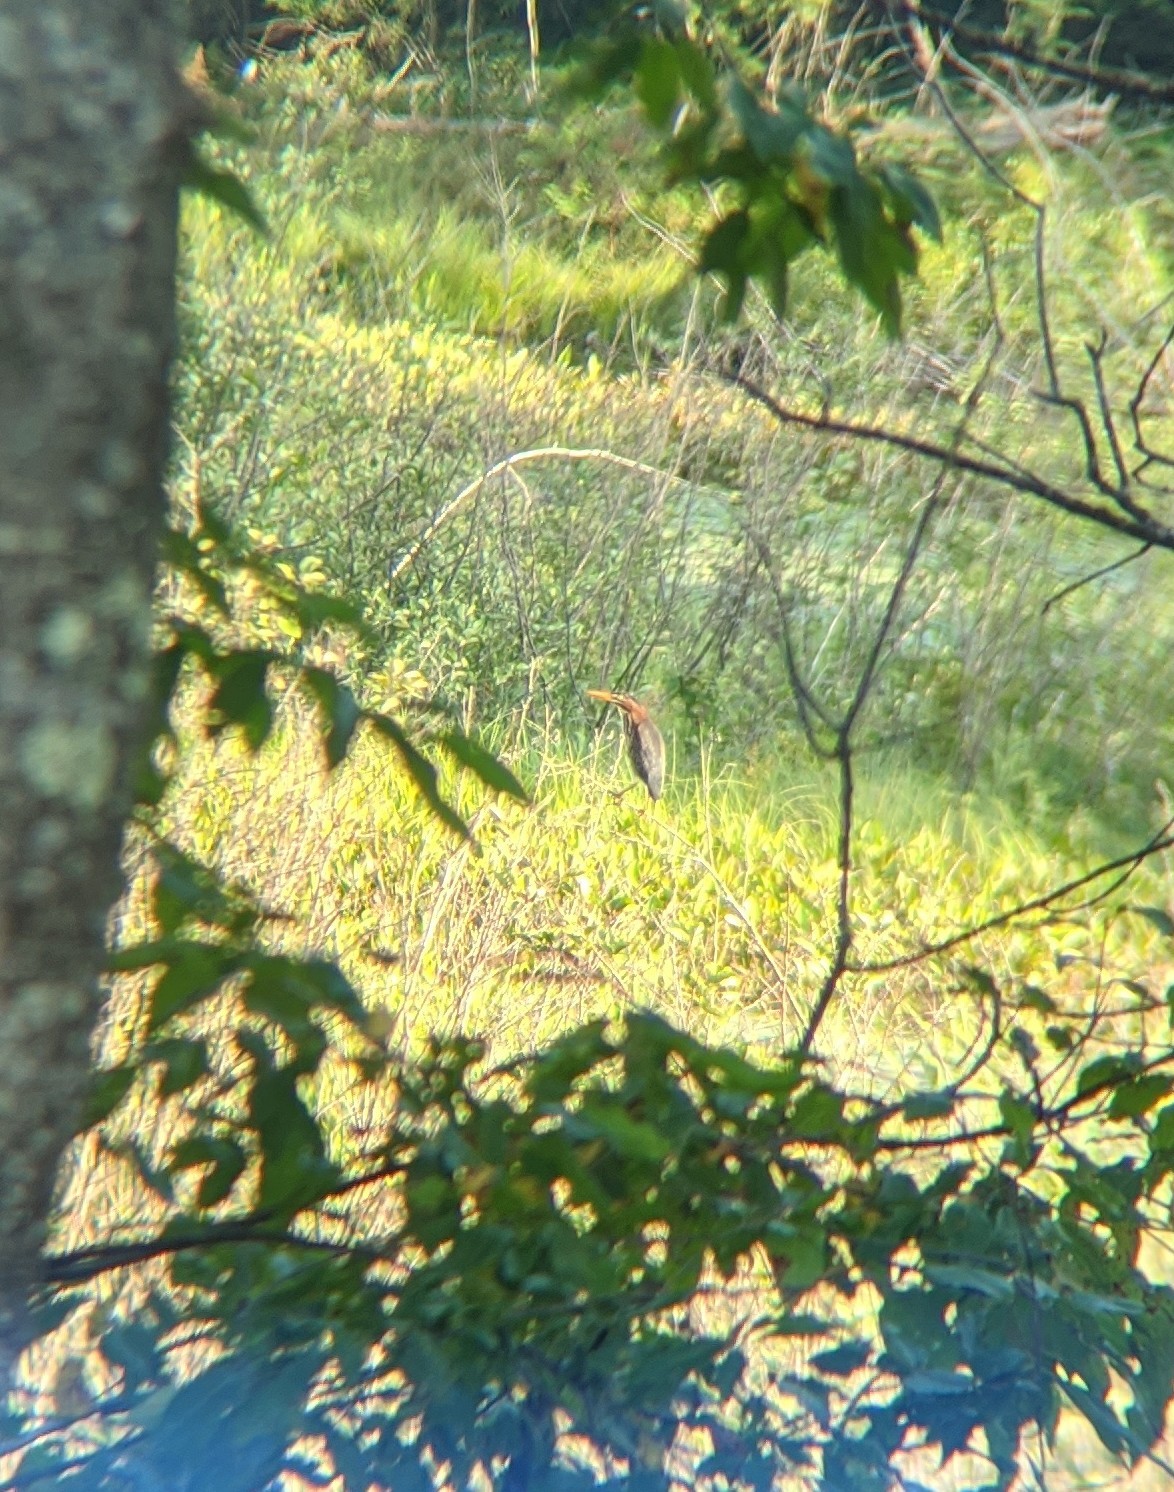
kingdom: Animalia
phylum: Chordata
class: Aves
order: Pelecaniformes
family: Ardeidae
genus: Butorides
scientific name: Butorides virescens
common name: Green heron
